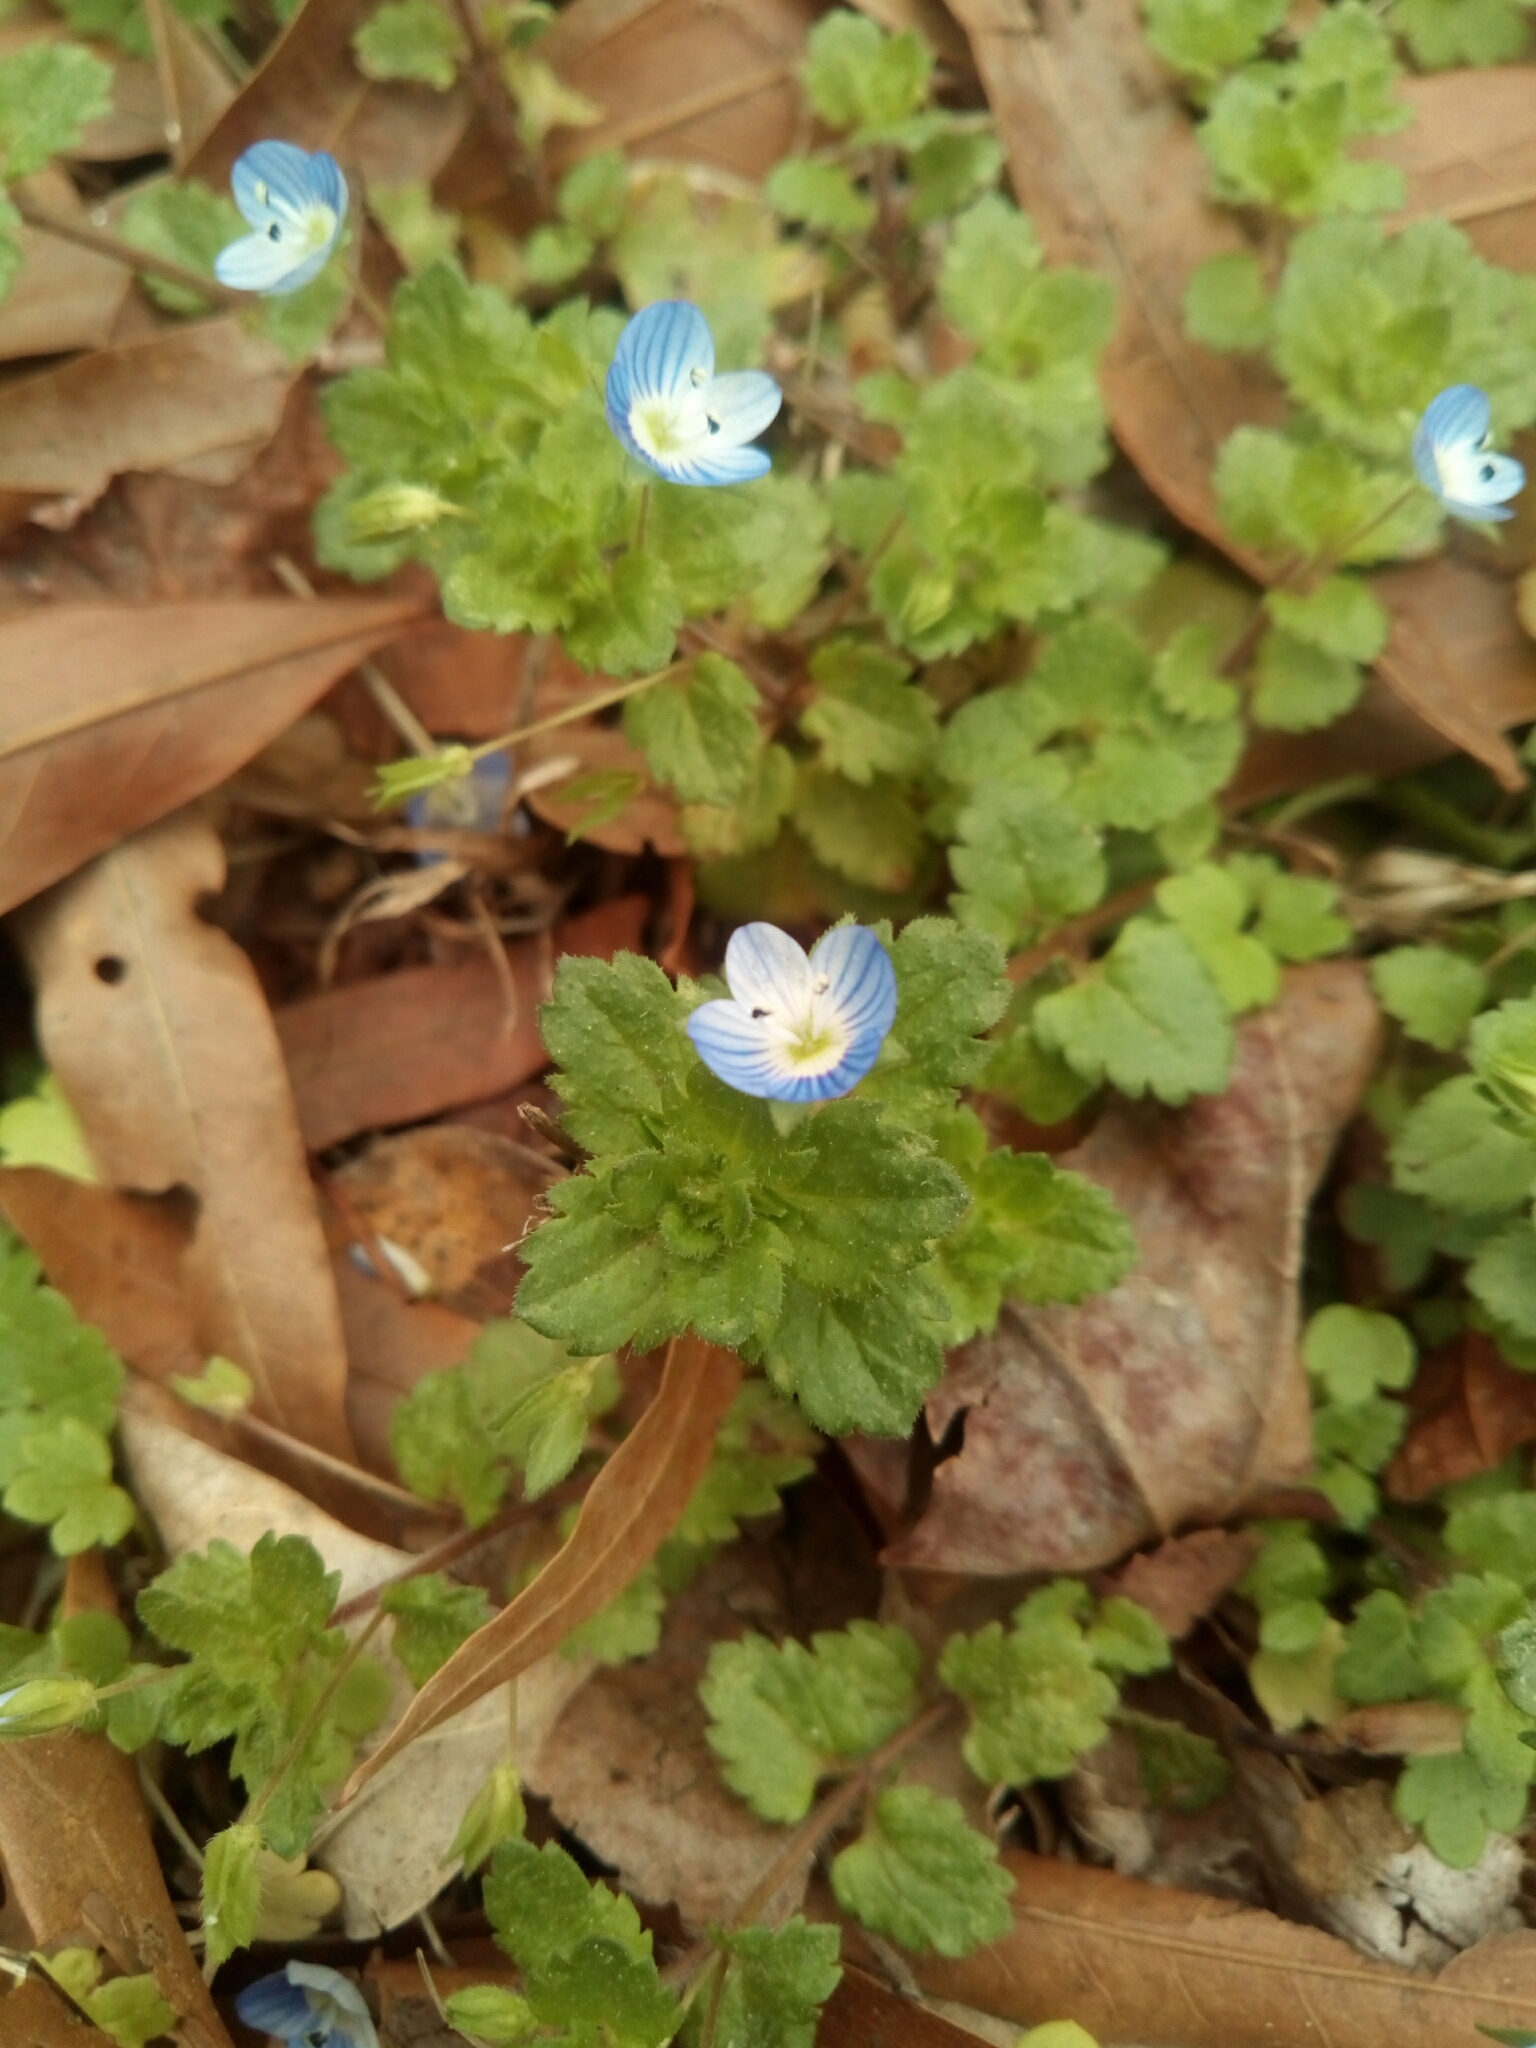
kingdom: Plantae
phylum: Tracheophyta
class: Magnoliopsida
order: Lamiales
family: Plantaginaceae
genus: Veronica
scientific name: Veronica persica
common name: Common field-speedwell
